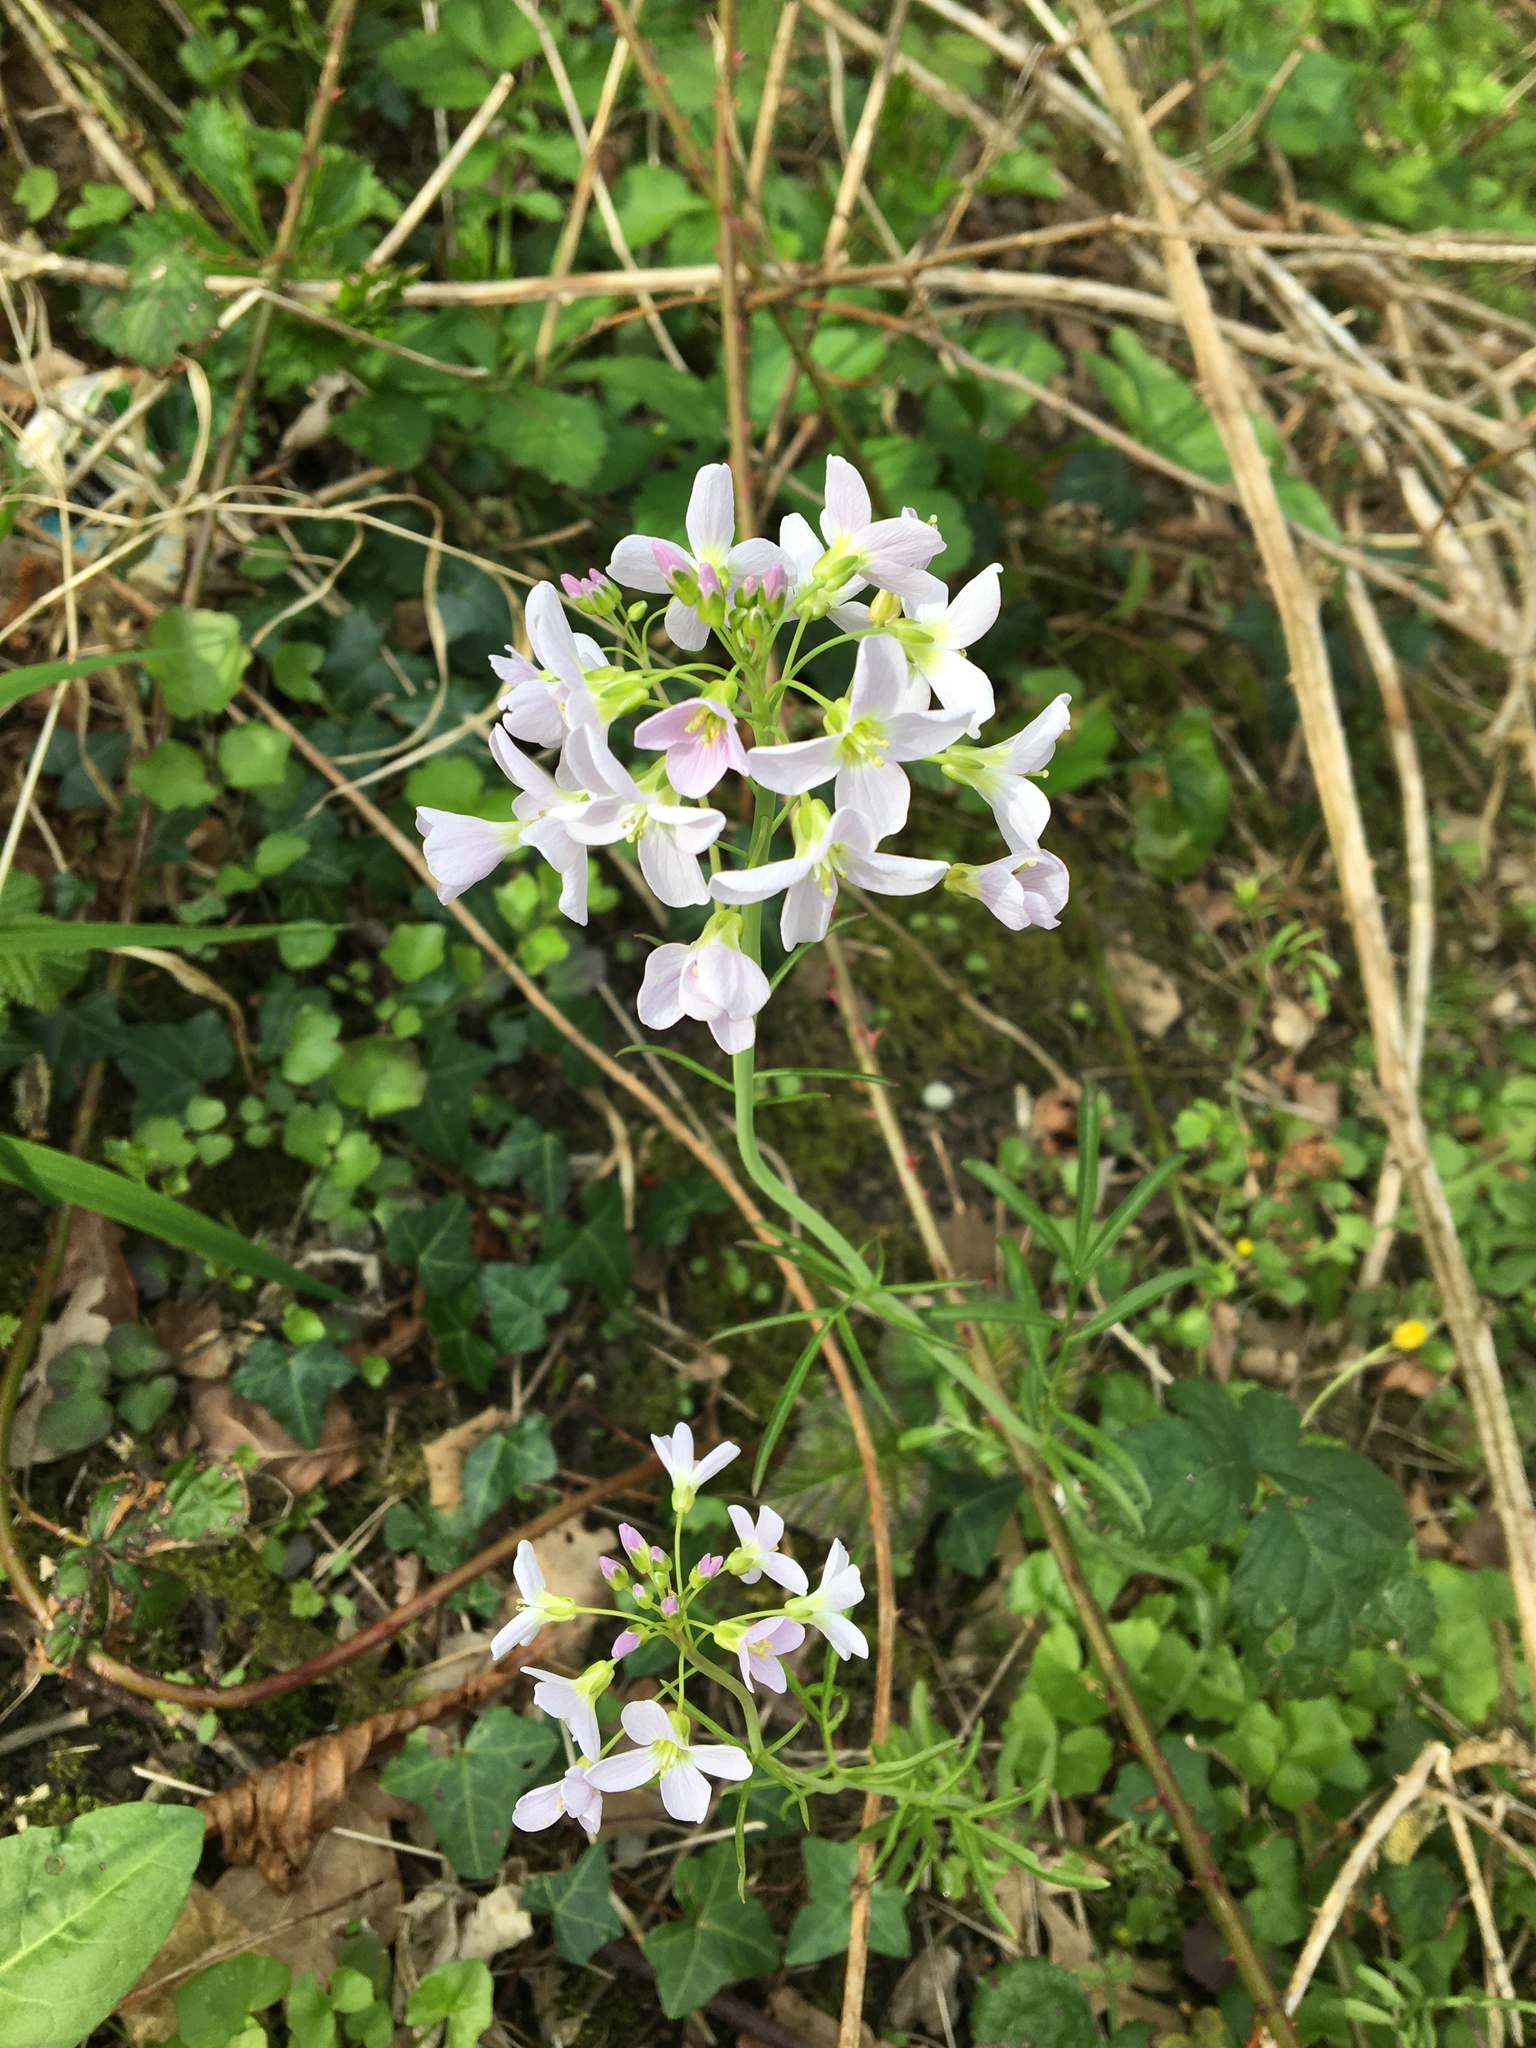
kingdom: Plantae
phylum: Tracheophyta
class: Magnoliopsida
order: Brassicales
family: Brassicaceae
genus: Cardamine
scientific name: Cardamine pratensis
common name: Cuckoo flower
